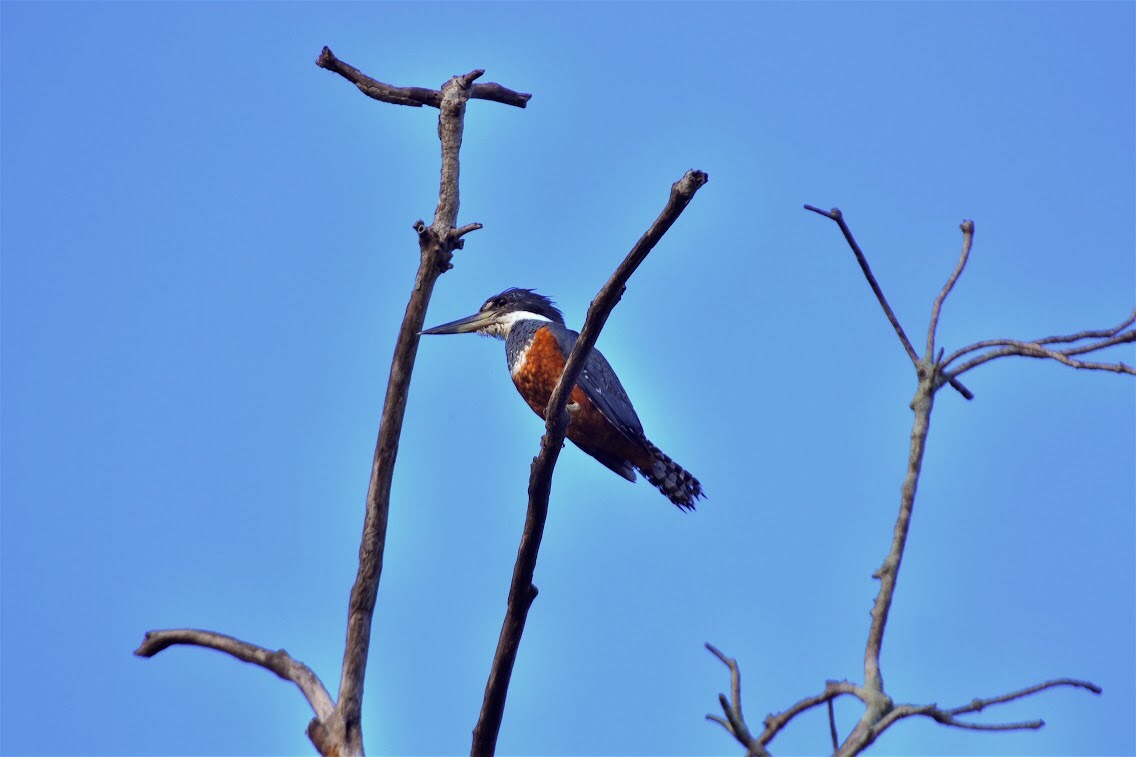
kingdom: Animalia
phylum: Chordata
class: Aves
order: Coraciiformes
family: Alcedinidae
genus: Megaceryle
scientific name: Megaceryle torquata
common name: Ringed kingfisher
